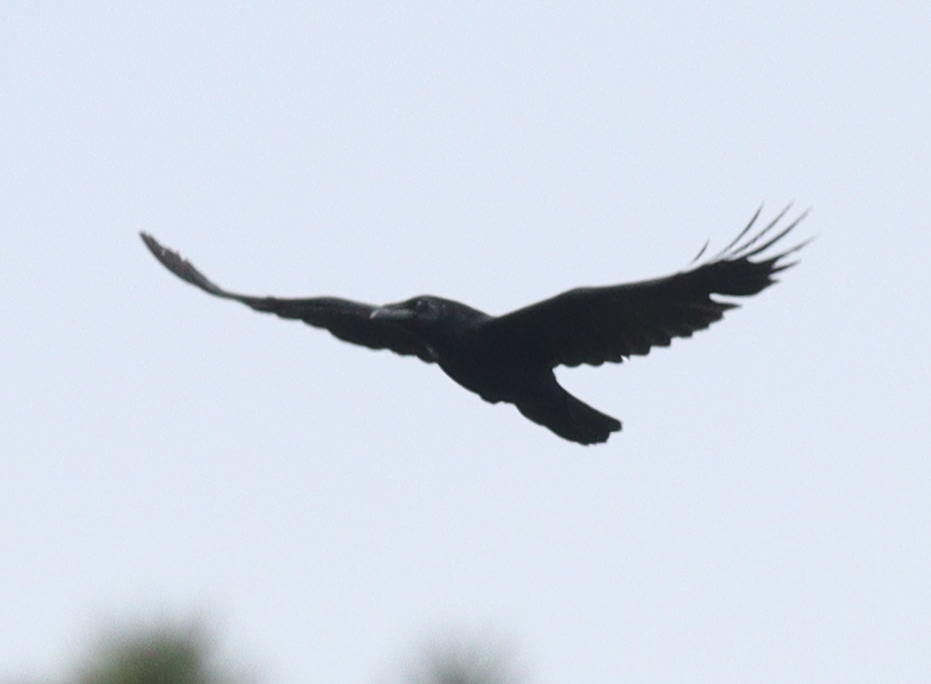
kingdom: Animalia
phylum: Chordata
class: Aves
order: Passeriformes
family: Corvidae
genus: Corvus
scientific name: Corvus corax
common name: Common raven
